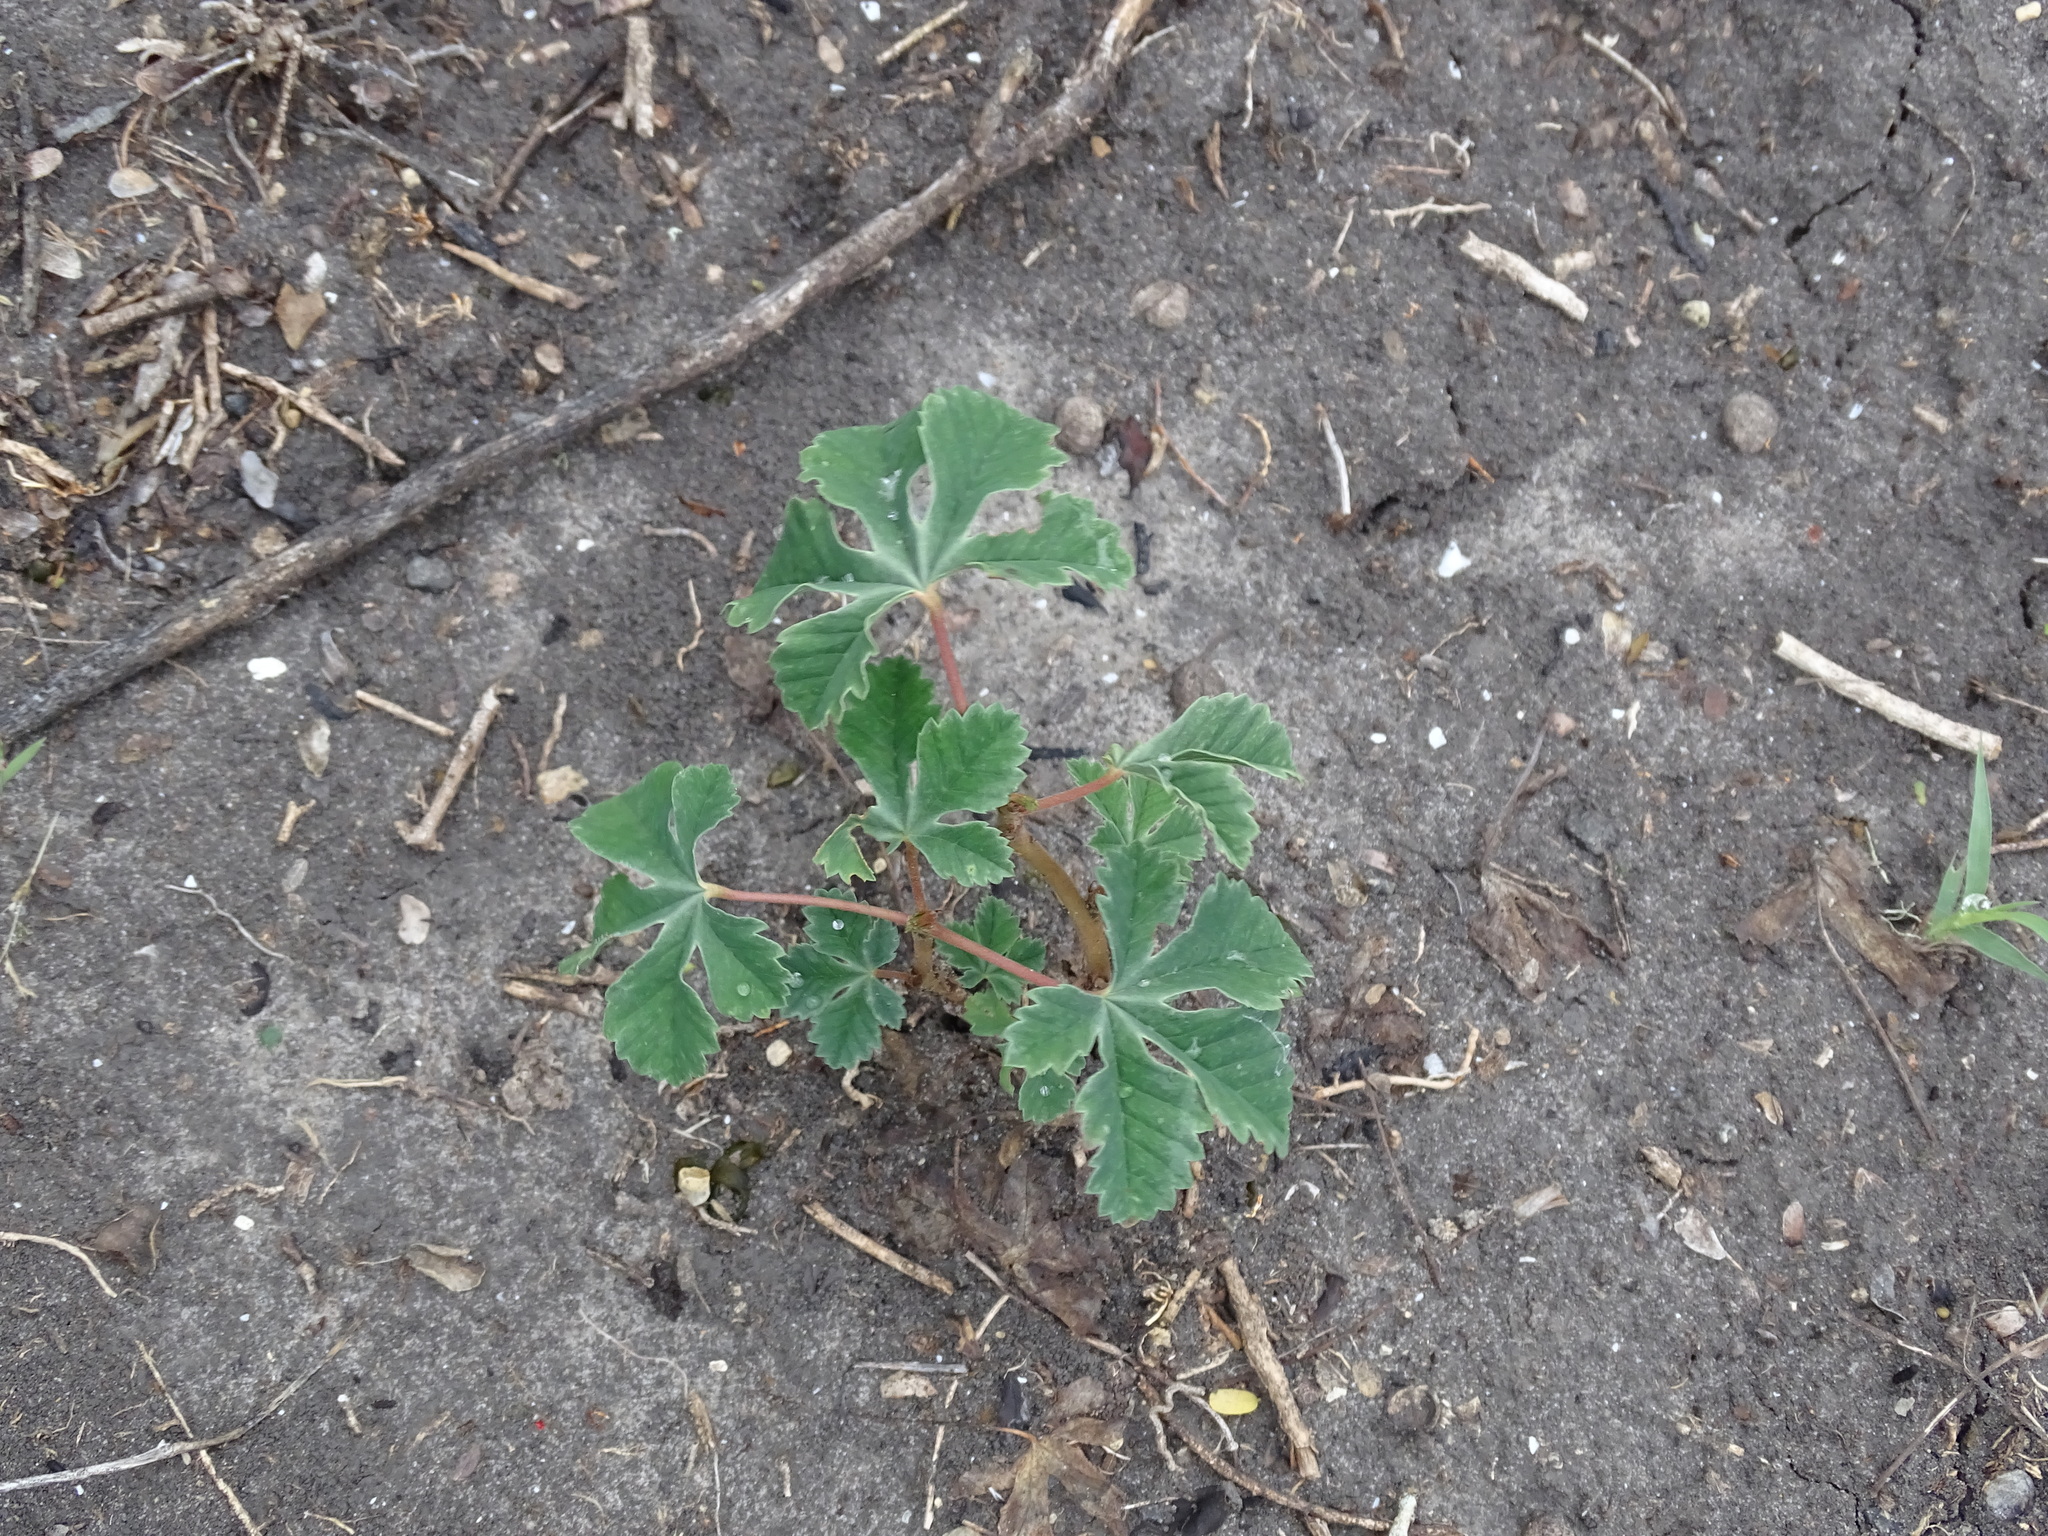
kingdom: Plantae
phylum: Tracheophyta
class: Magnoliopsida
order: Malvales
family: Cochlospermaceae
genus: Cochlospermum
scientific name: Cochlospermum wrightii
